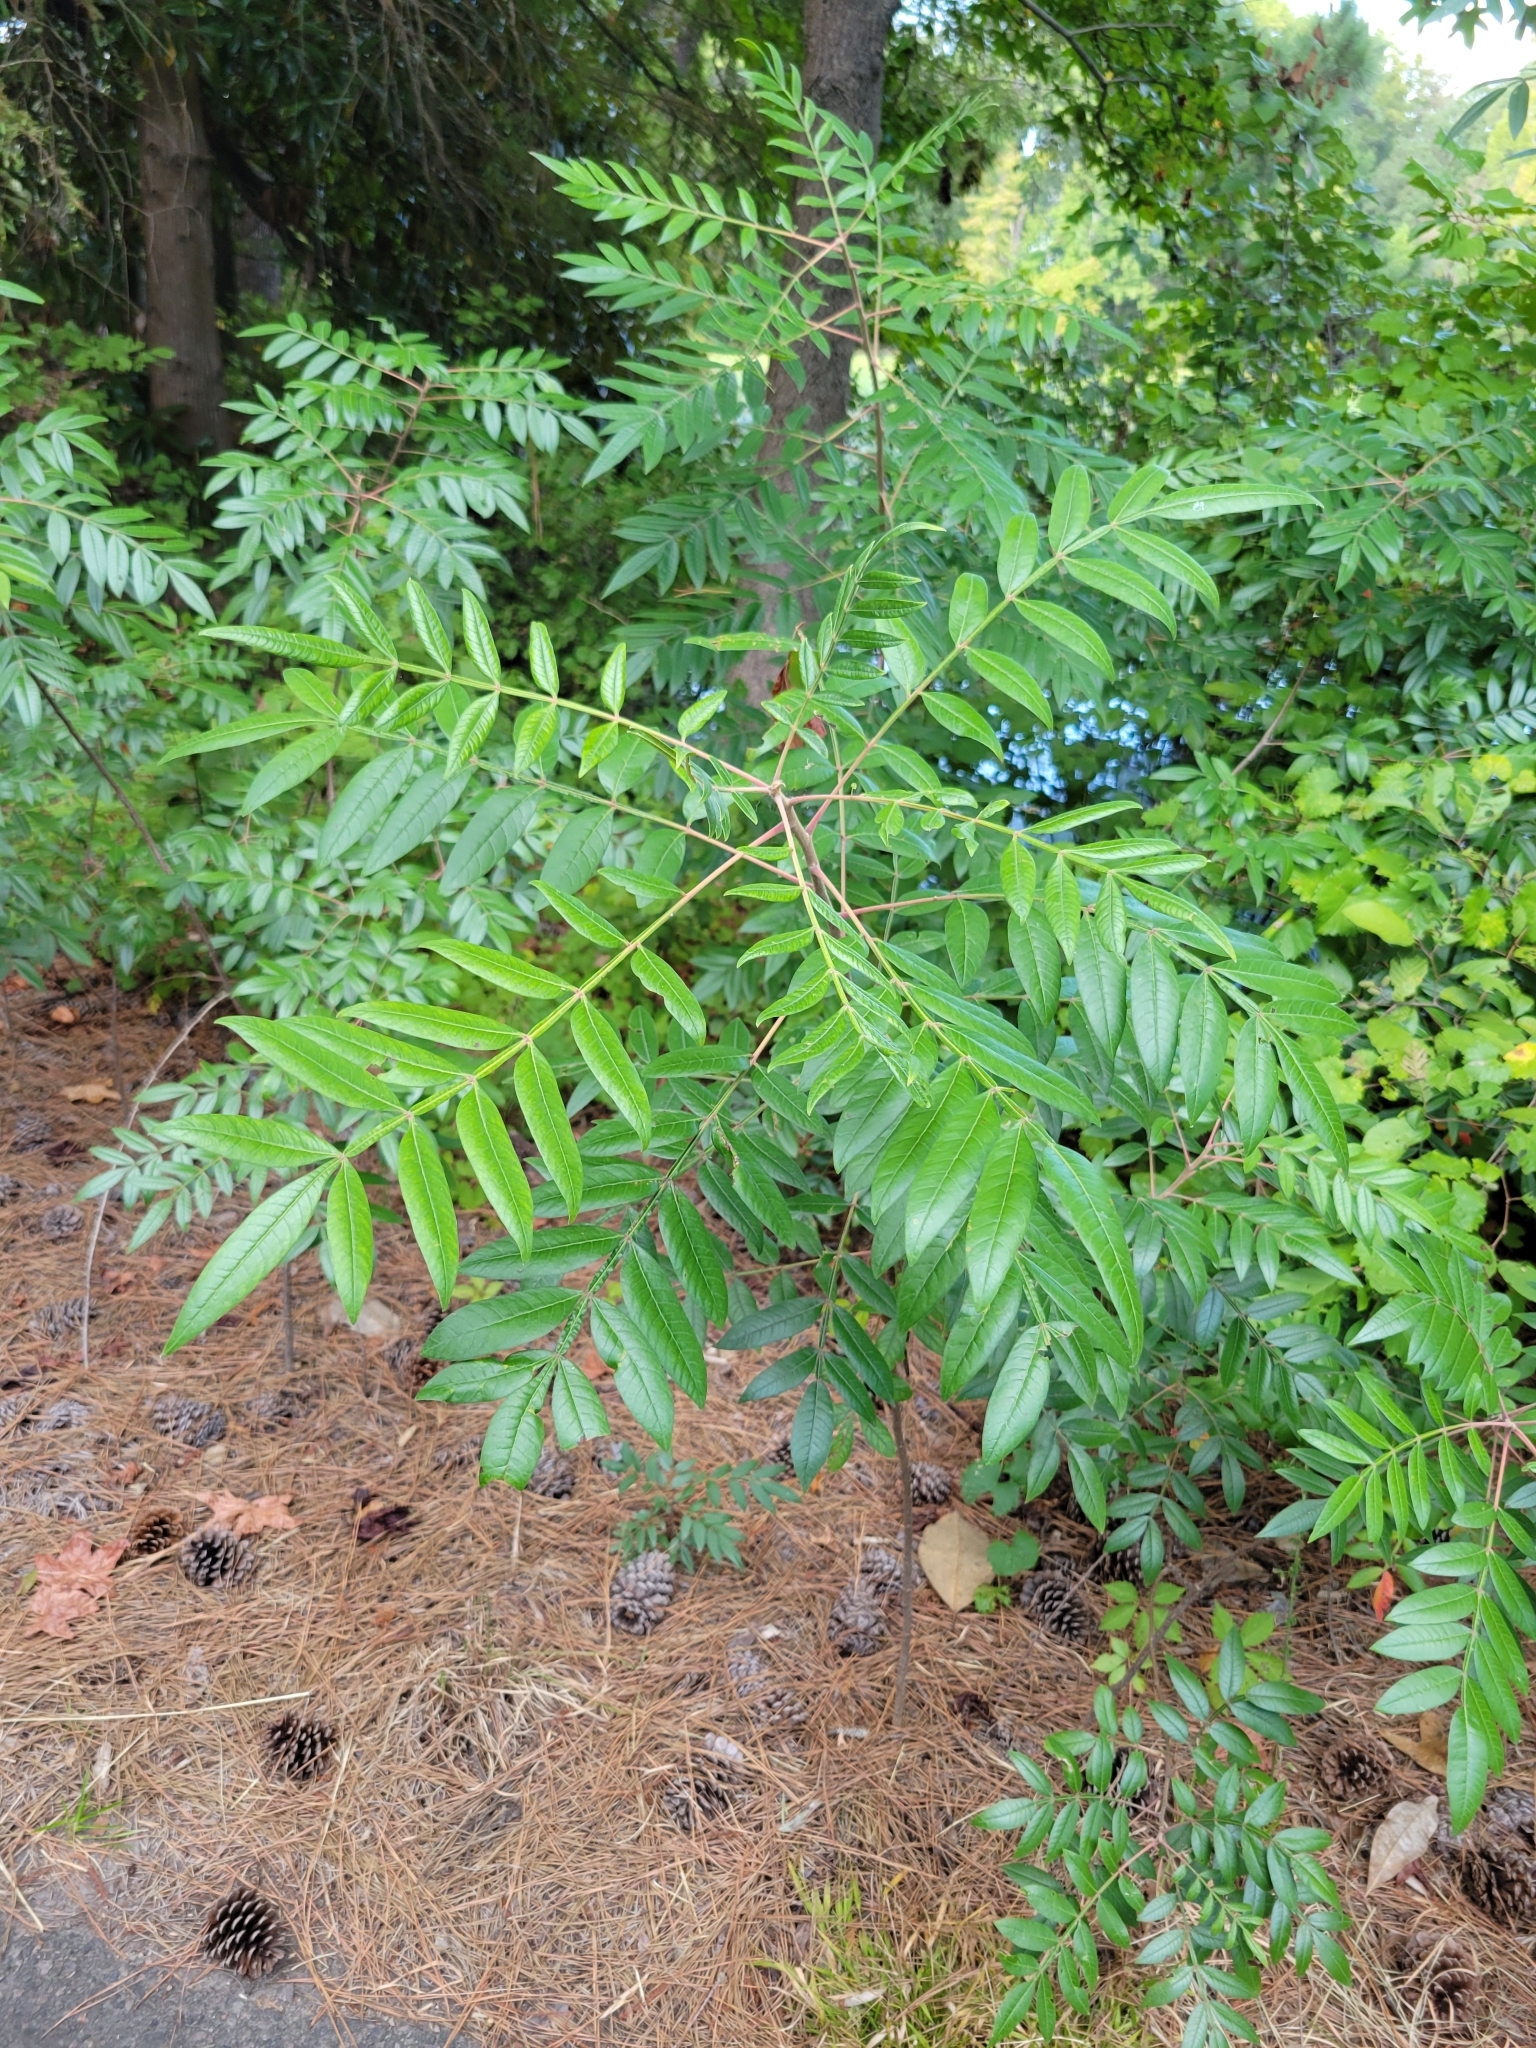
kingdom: Plantae
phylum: Tracheophyta
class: Magnoliopsida
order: Sapindales
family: Anacardiaceae
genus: Rhus
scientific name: Rhus copallina
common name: Shining sumac
